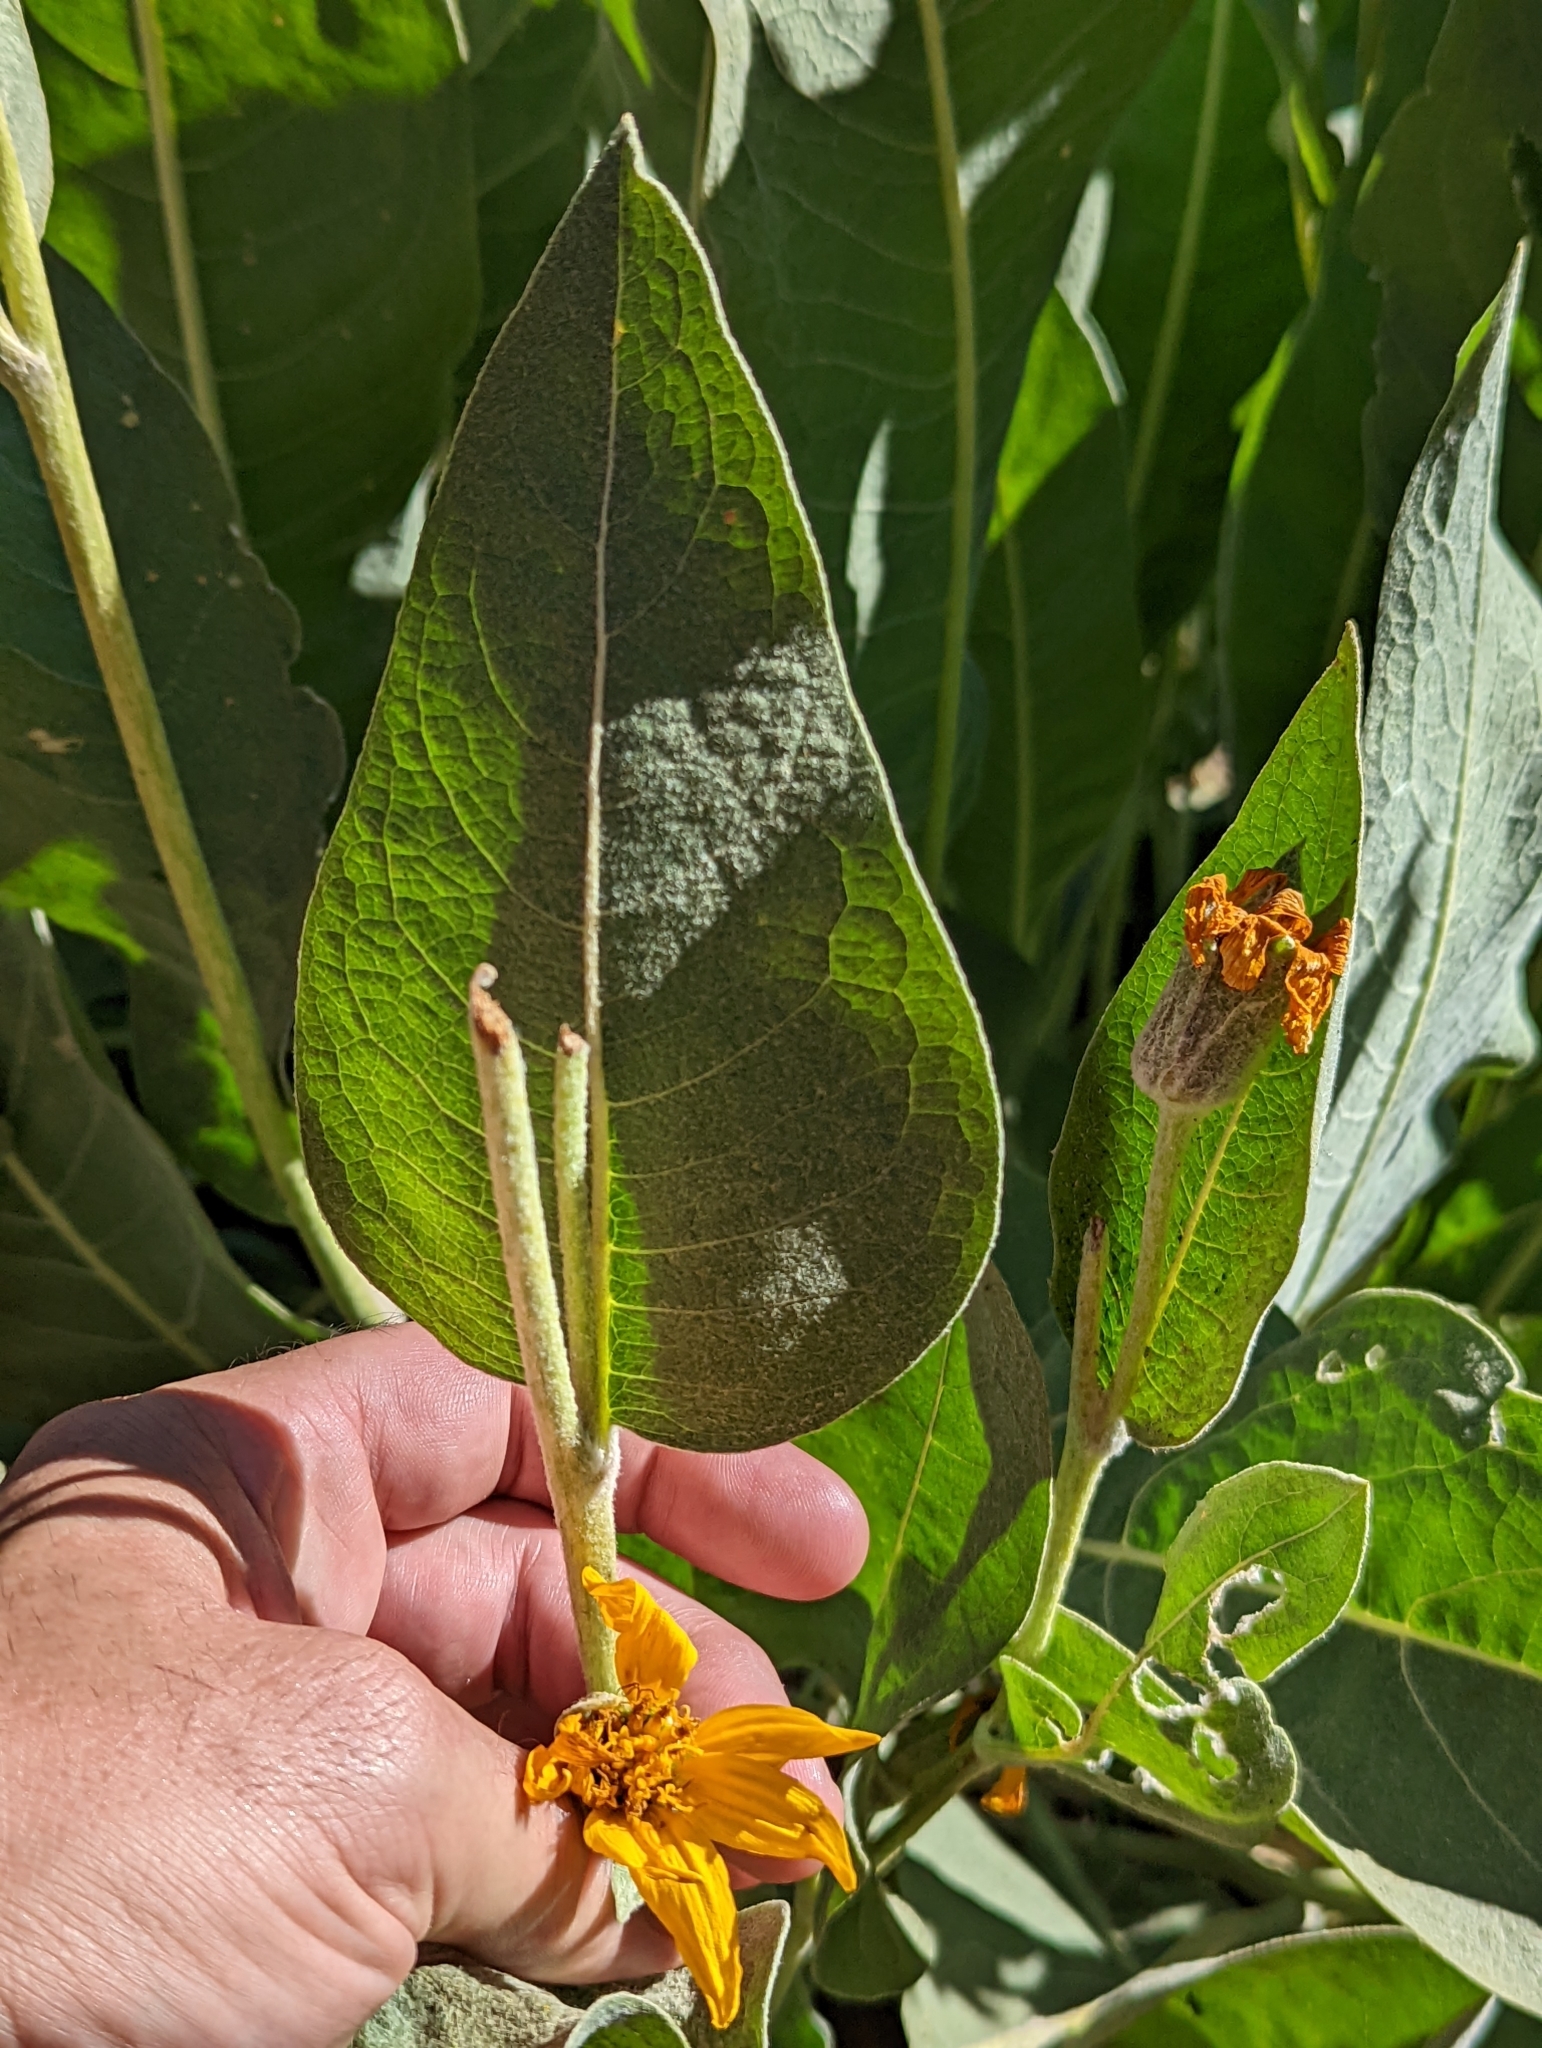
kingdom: Plantae
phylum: Tracheophyta
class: Magnoliopsida
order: Asterales
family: Asteraceae
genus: Wyethia
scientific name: Wyethia mollis
